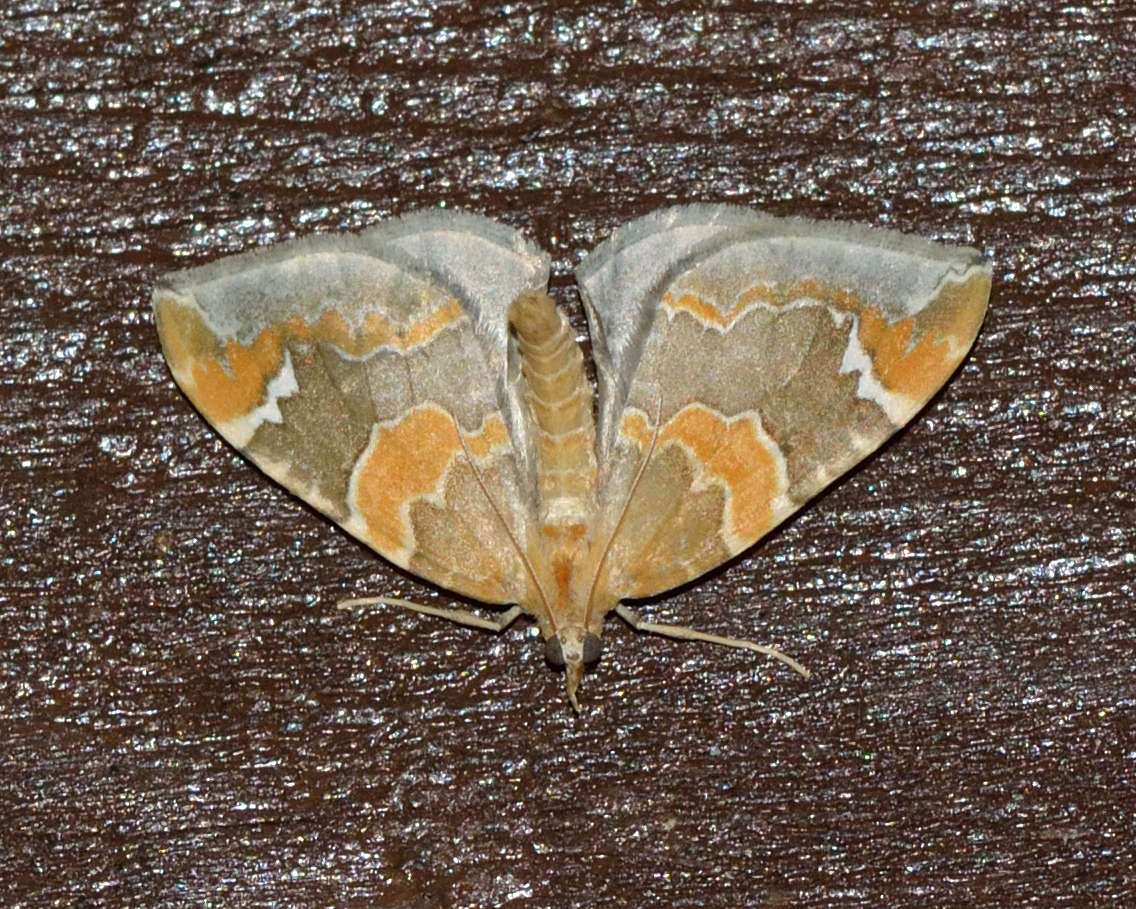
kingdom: Animalia
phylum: Arthropoda
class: Insecta
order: Lepidoptera
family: Geometridae
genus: Eulithis
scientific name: Eulithis pyropata
